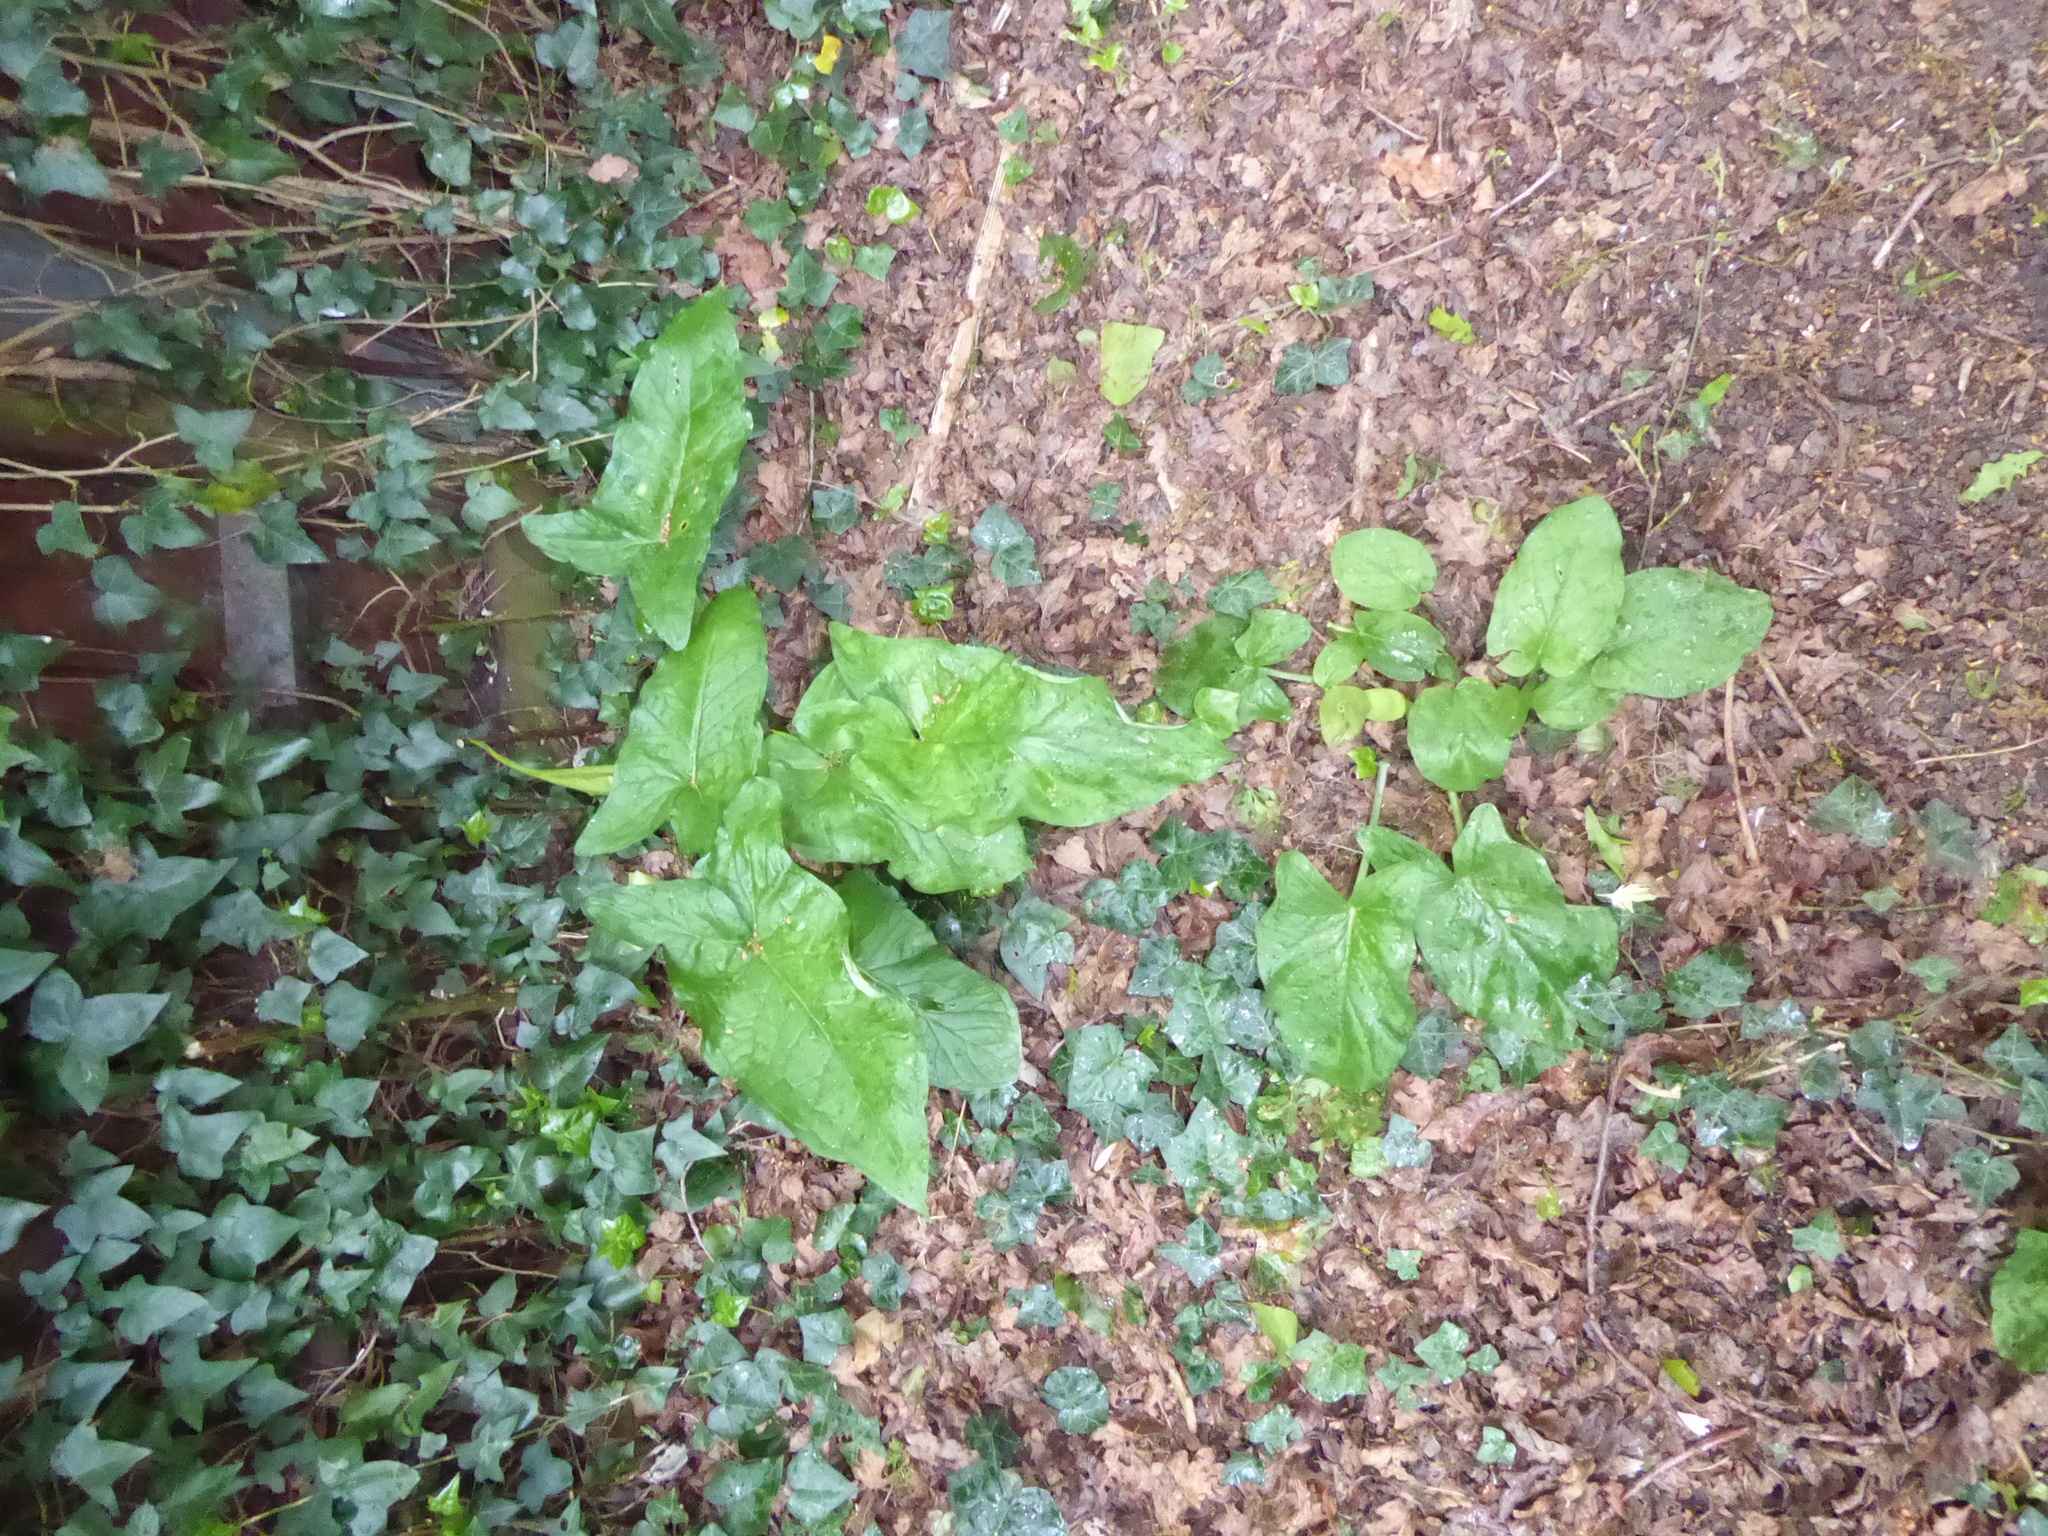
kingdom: Plantae
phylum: Tracheophyta
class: Liliopsida
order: Alismatales
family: Araceae
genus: Arum
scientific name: Arum maculatum
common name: Lords-and-ladies
